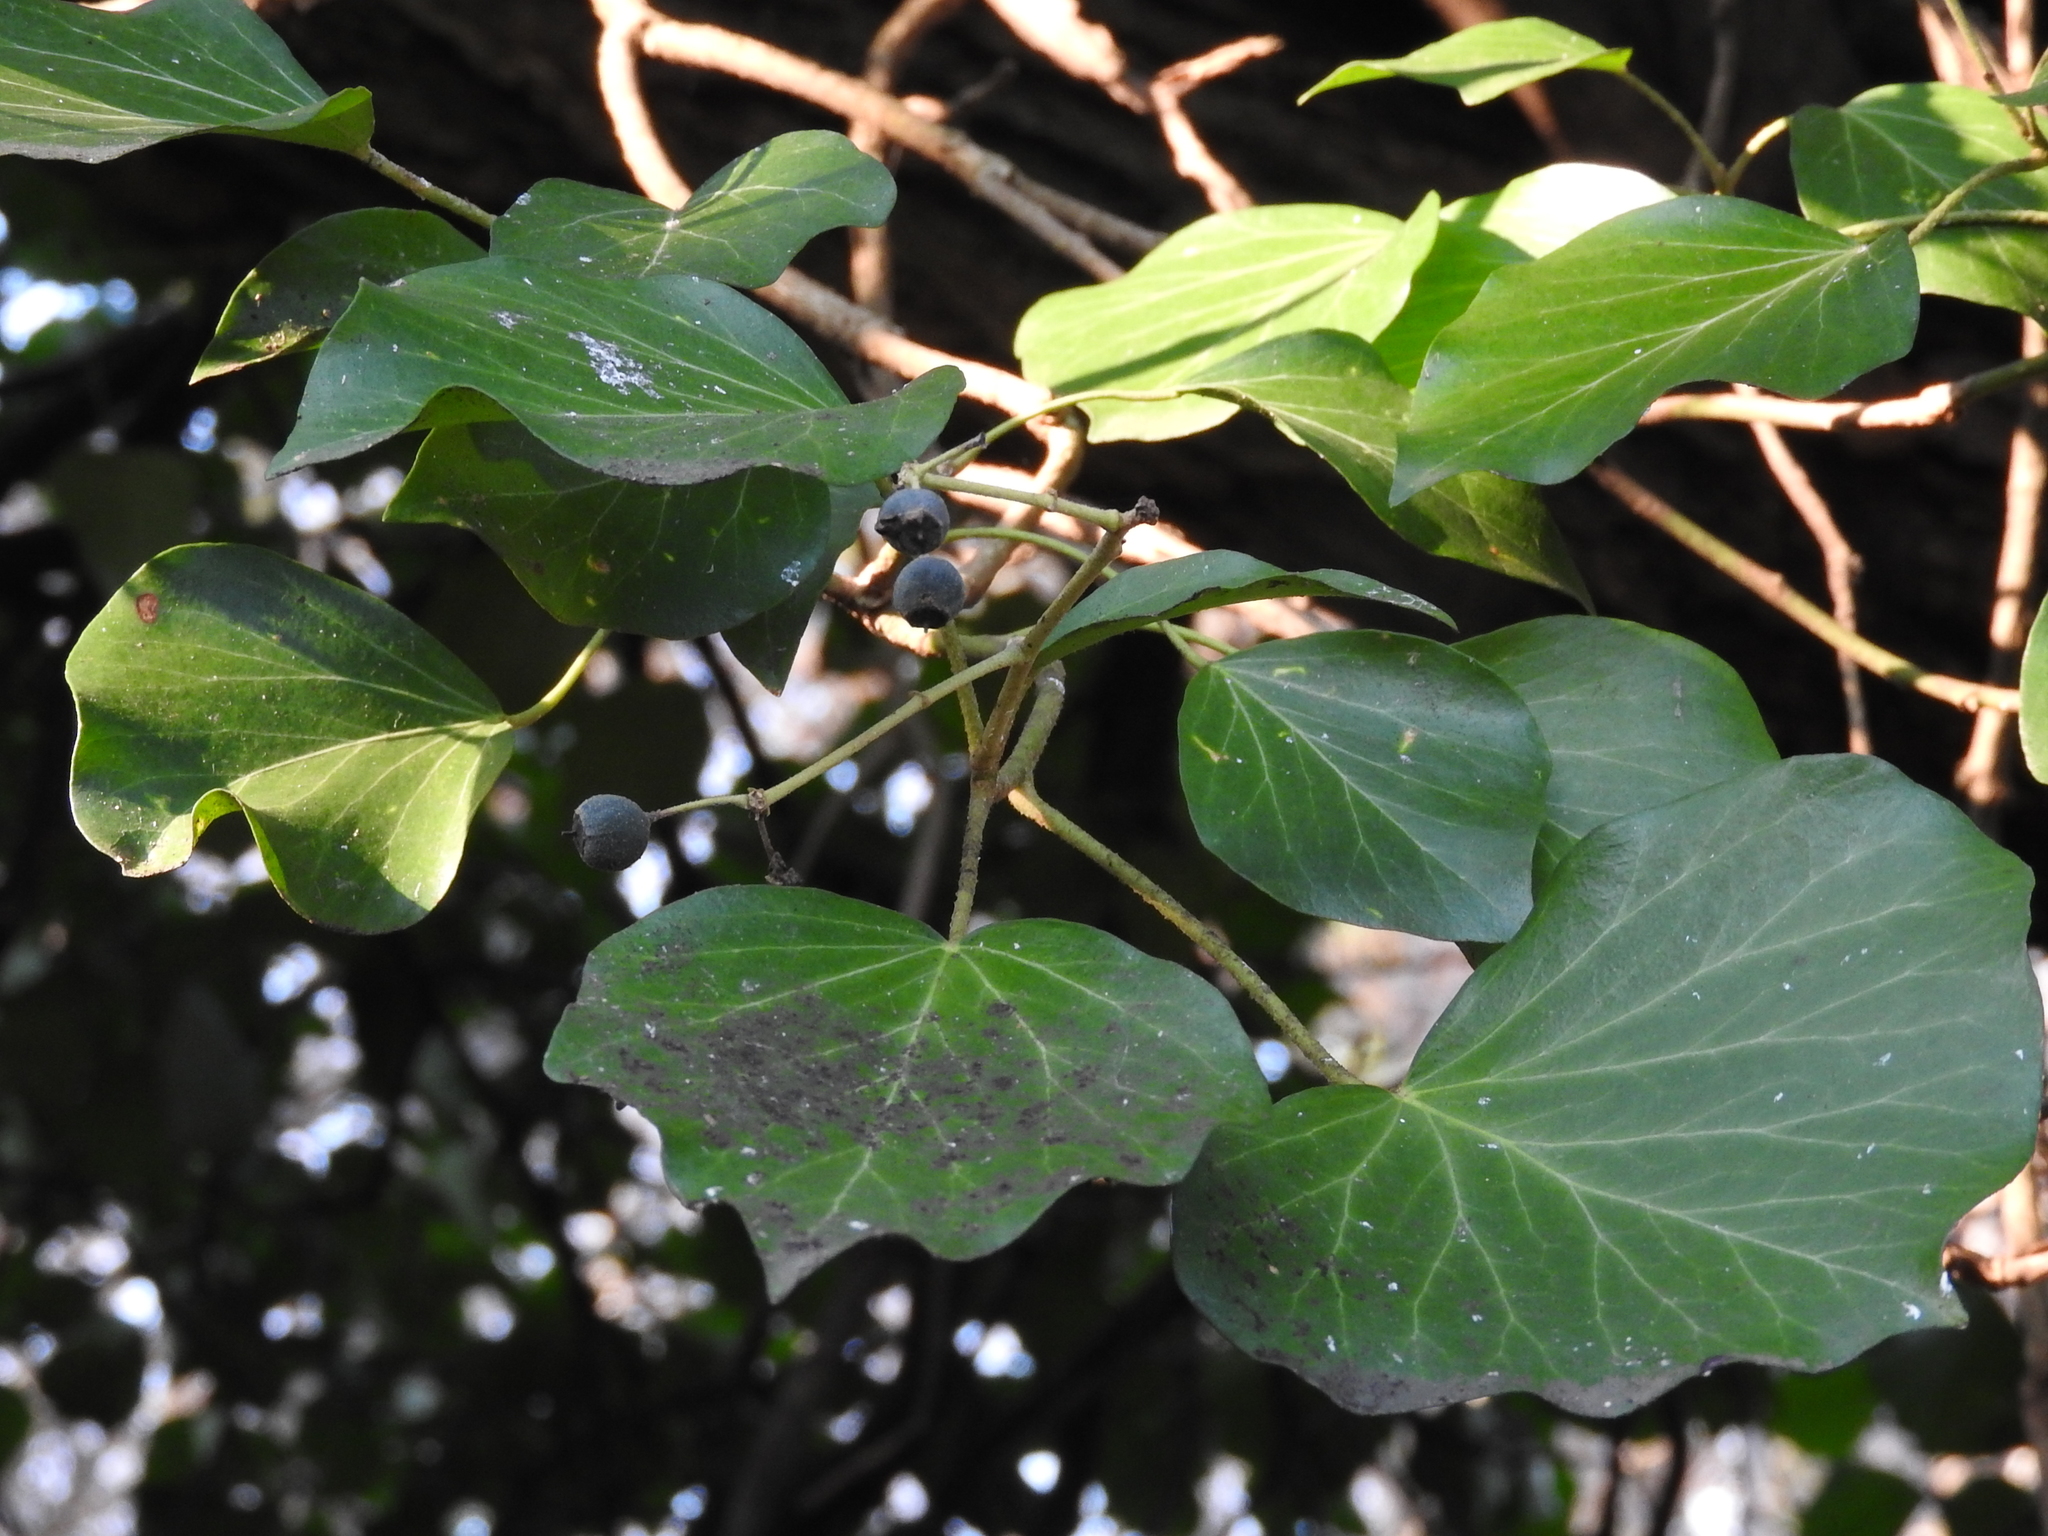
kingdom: Plantae
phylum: Tracheophyta
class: Magnoliopsida
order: Apiales
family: Araliaceae
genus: Hedera
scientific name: Hedera helix
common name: Ivy
